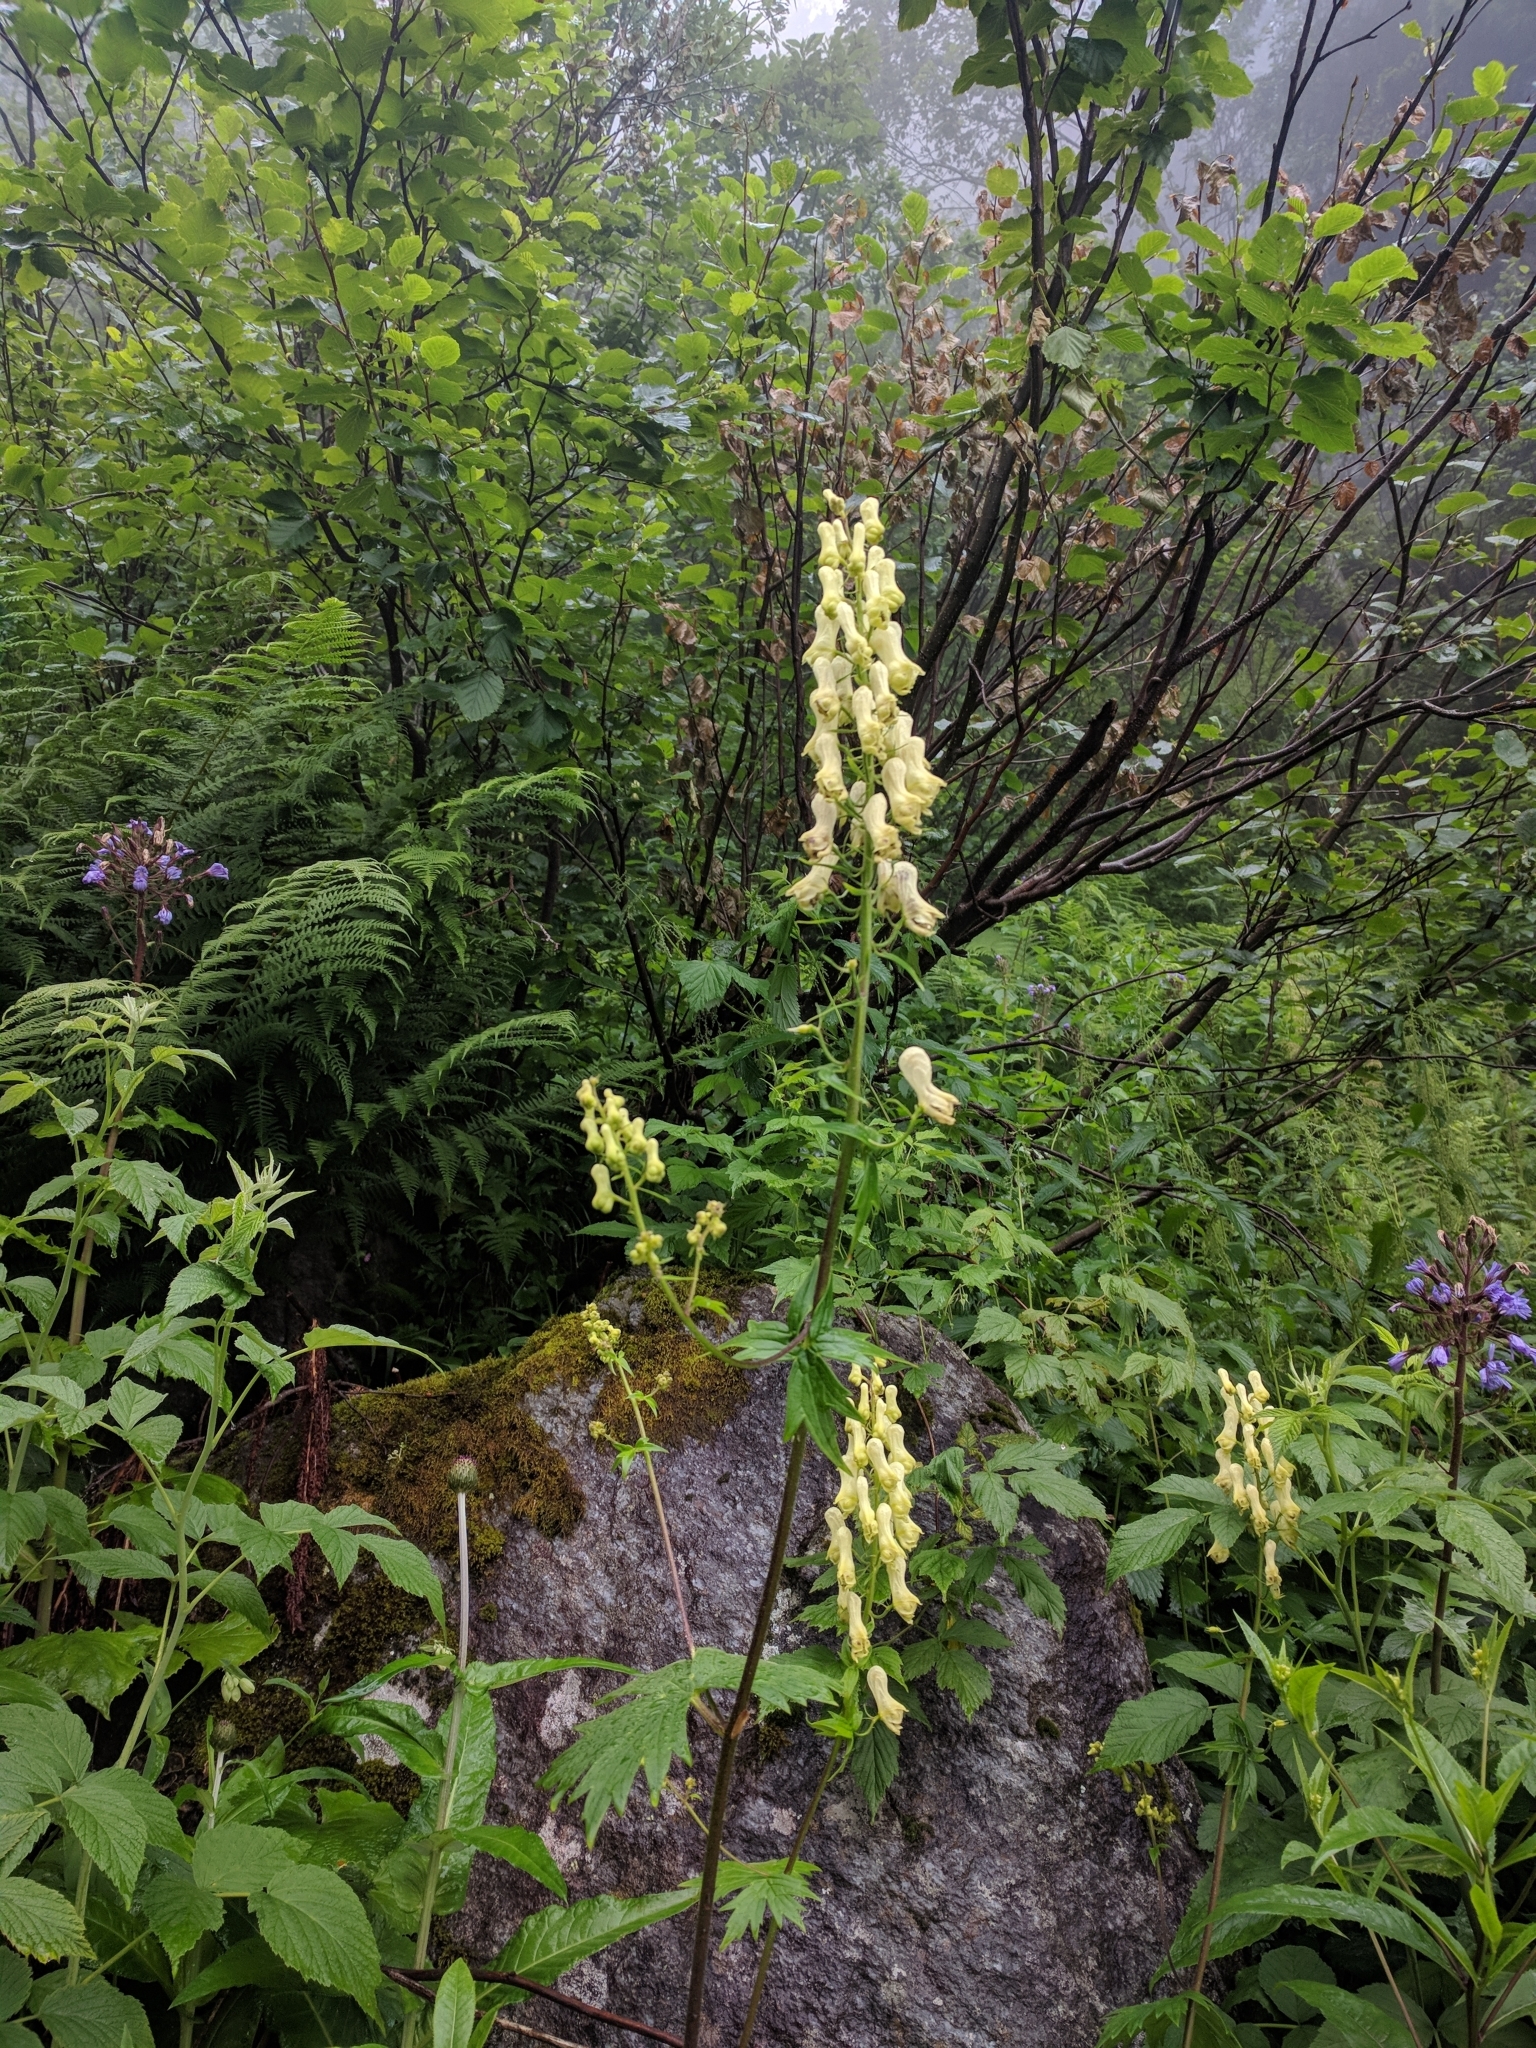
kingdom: Plantae
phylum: Tracheophyta
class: Magnoliopsida
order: Ranunculales
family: Ranunculaceae
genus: Aconitum
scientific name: Aconitum lycoctonum
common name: Wolf's-bane
